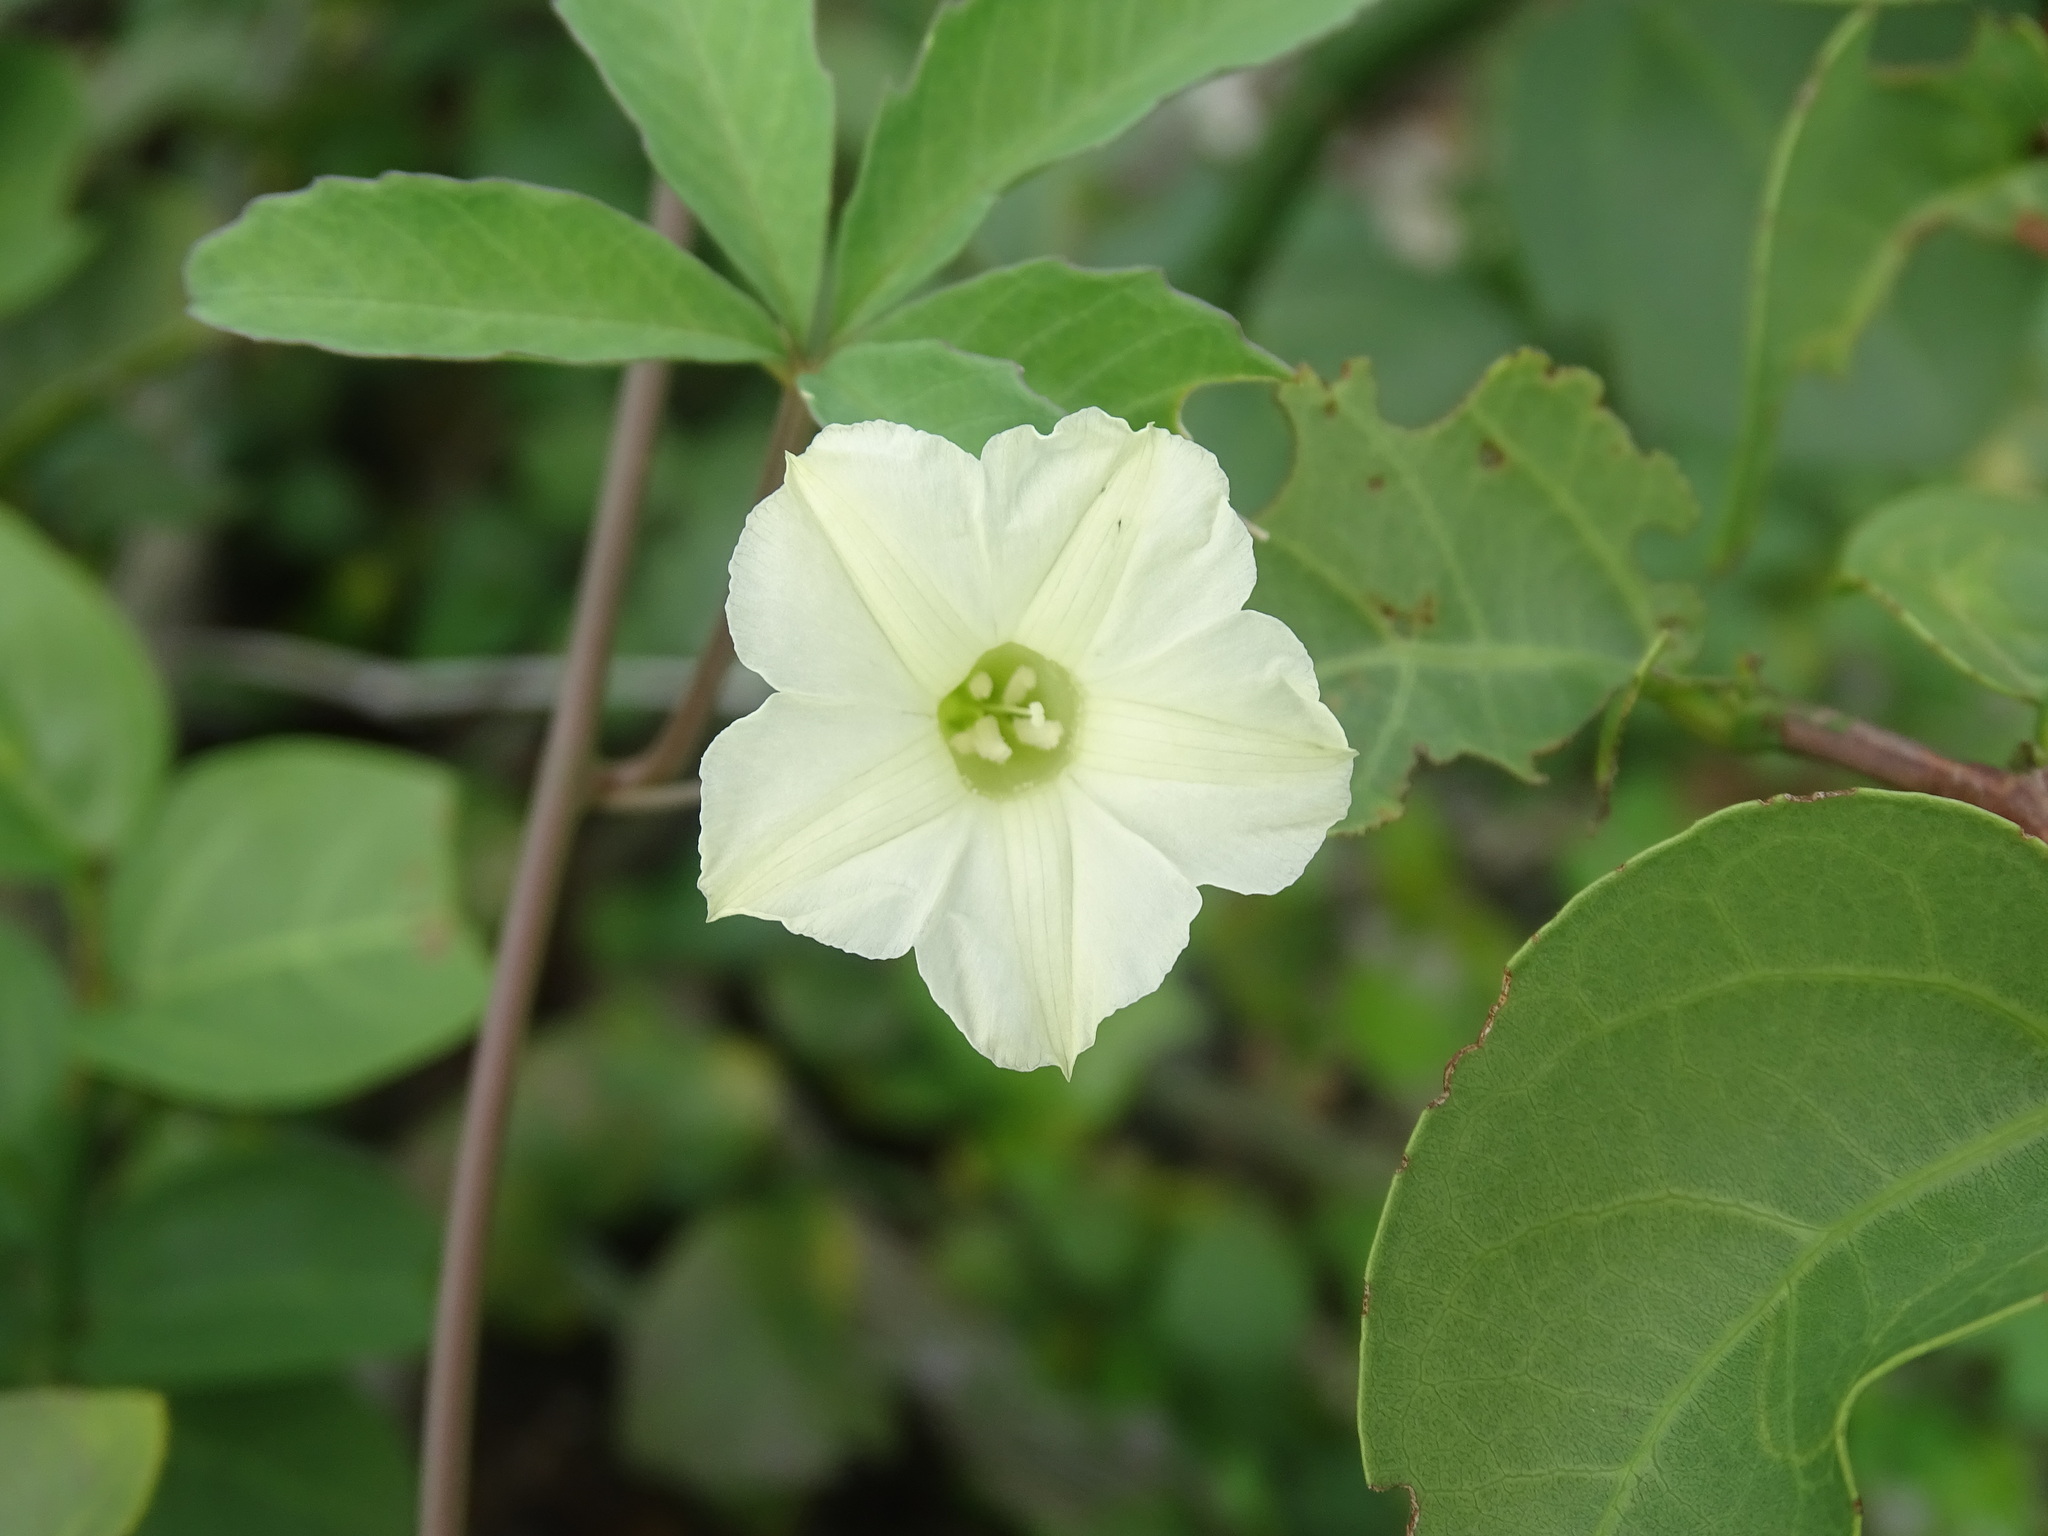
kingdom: Plantae
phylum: Tracheophyta
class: Magnoliopsida
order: Solanales
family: Convolvulaceae
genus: Distimake
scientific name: Distimake quinquefolius
